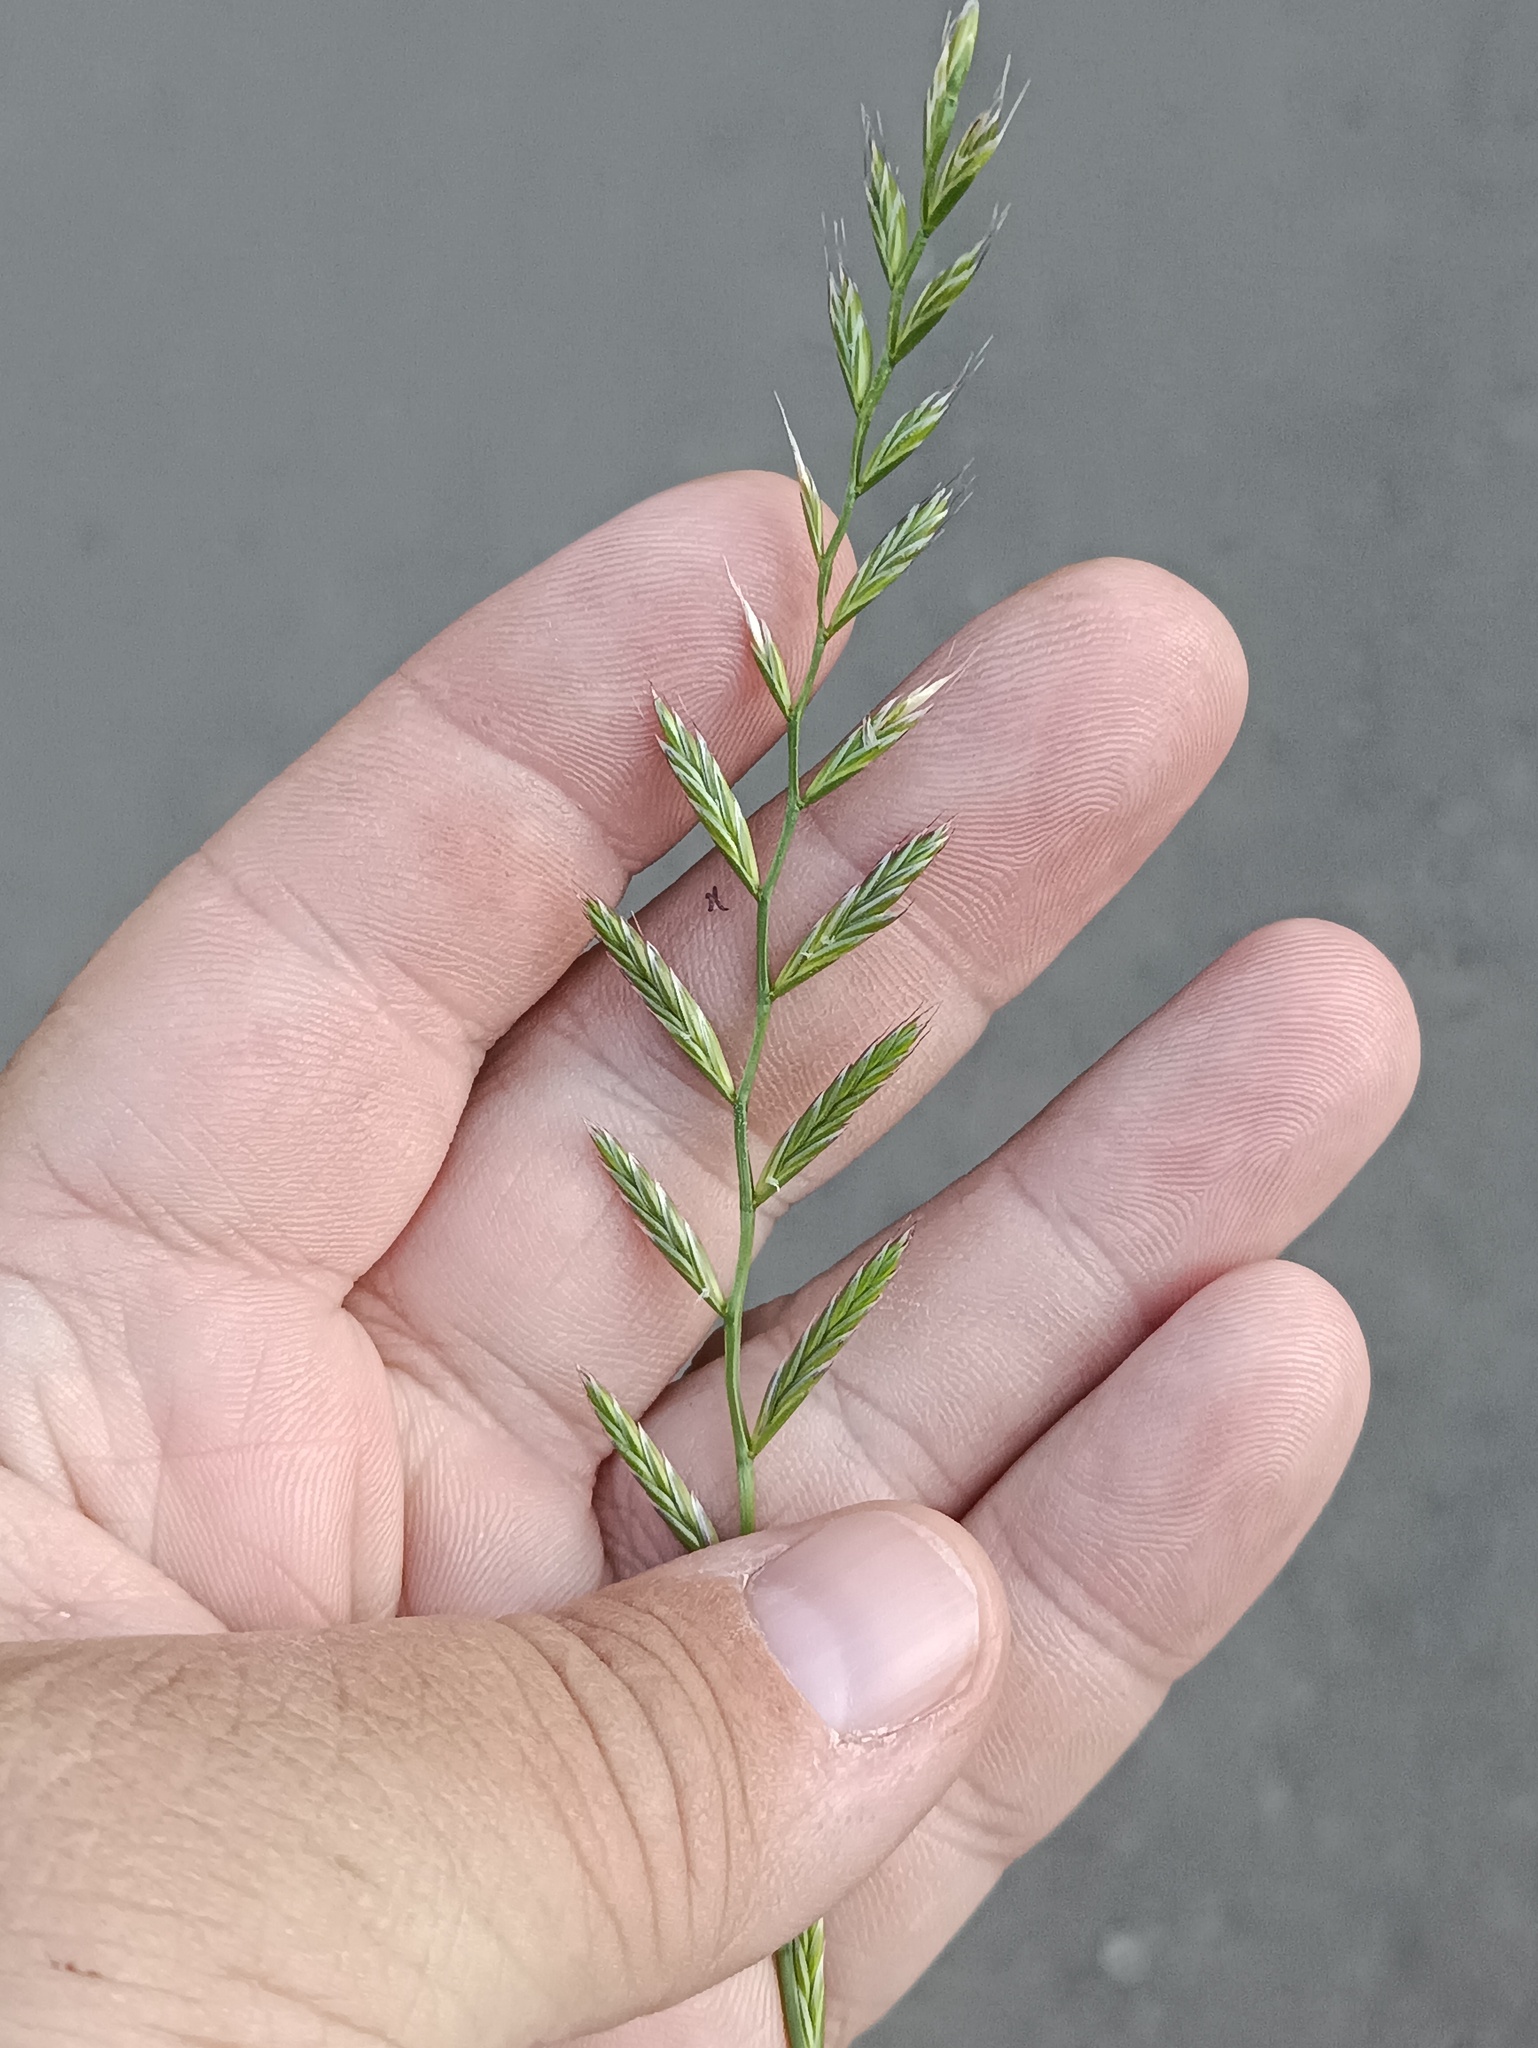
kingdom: Plantae
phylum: Tracheophyta
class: Liliopsida
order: Poales
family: Poaceae
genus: Lolium
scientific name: Lolium multiflorum
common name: Annual ryegrass
